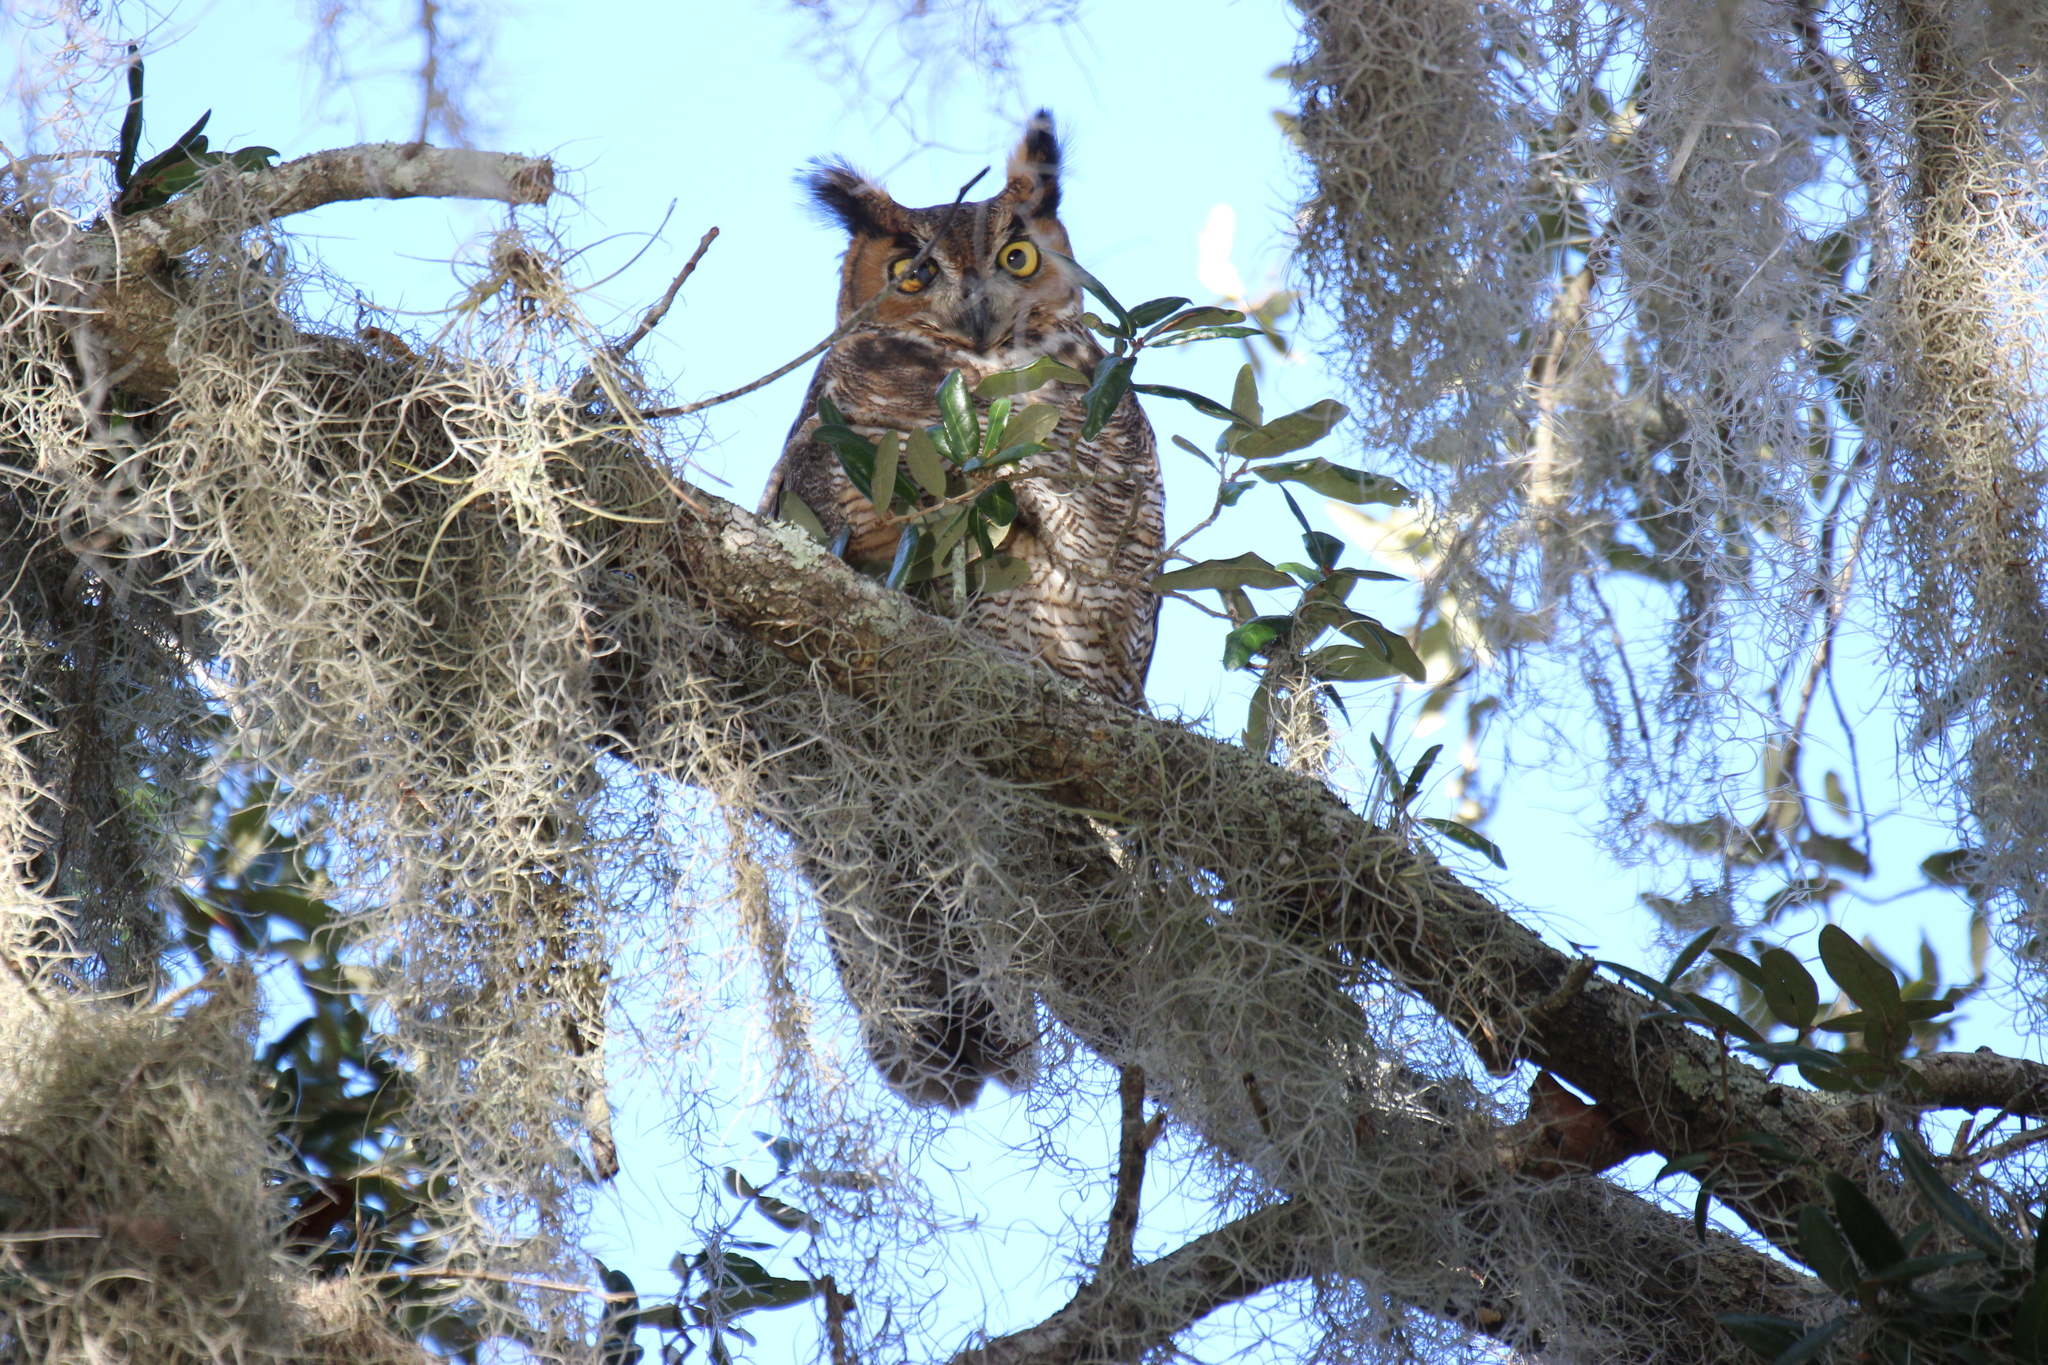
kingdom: Animalia
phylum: Chordata
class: Aves
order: Strigiformes
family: Strigidae
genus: Bubo
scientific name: Bubo virginianus
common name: Great horned owl
